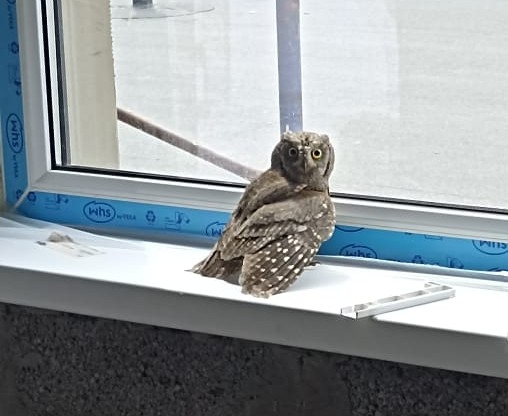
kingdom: Animalia
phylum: Chordata
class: Aves
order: Strigiformes
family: Strigidae
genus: Otus
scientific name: Otus scops
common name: Eurasian scops owl
